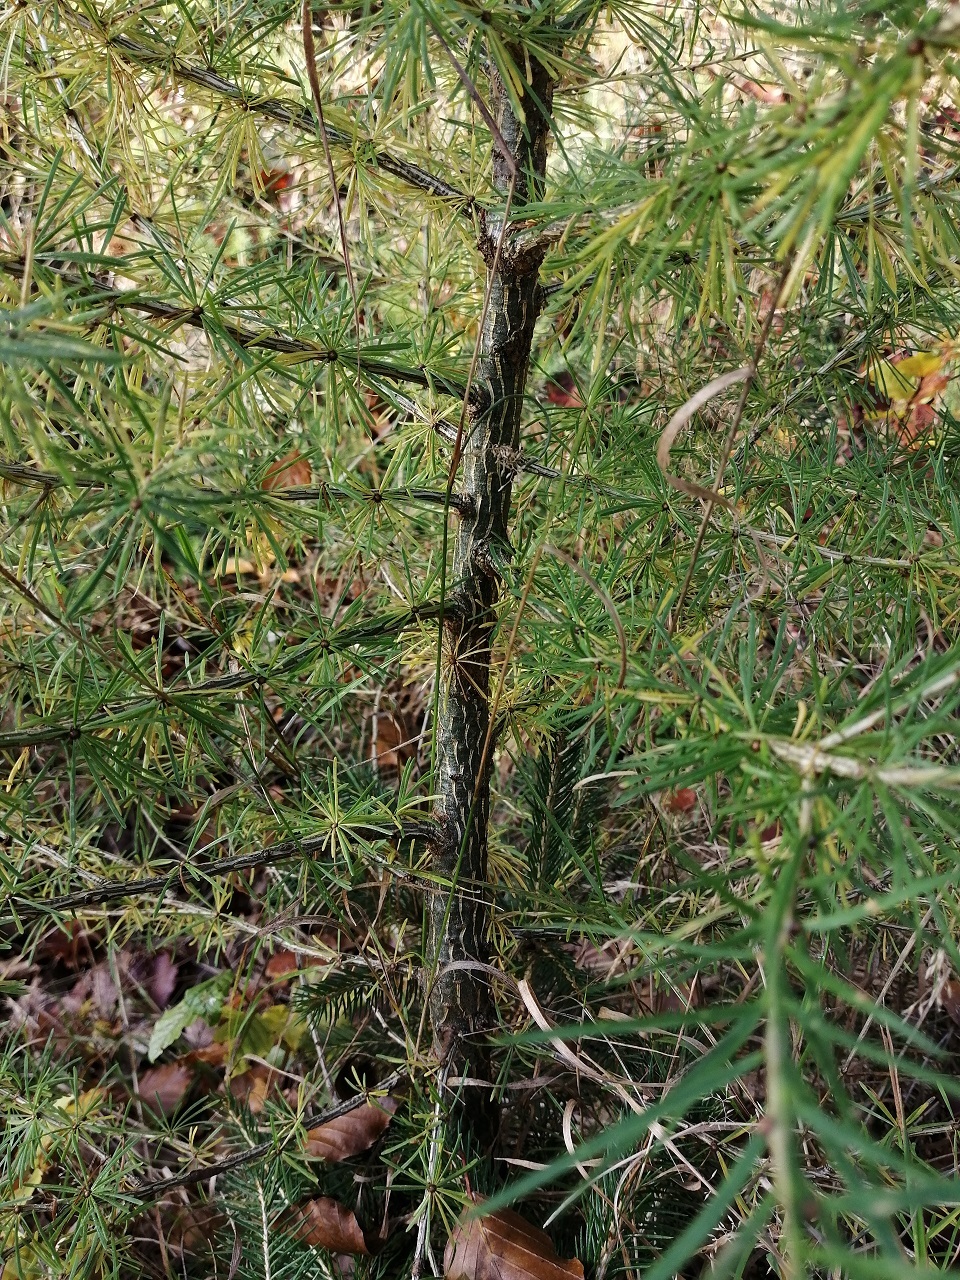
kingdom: Plantae
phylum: Tracheophyta
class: Pinopsida
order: Pinales
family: Pinaceae
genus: Larix
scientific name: Larix decidua
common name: European larch
